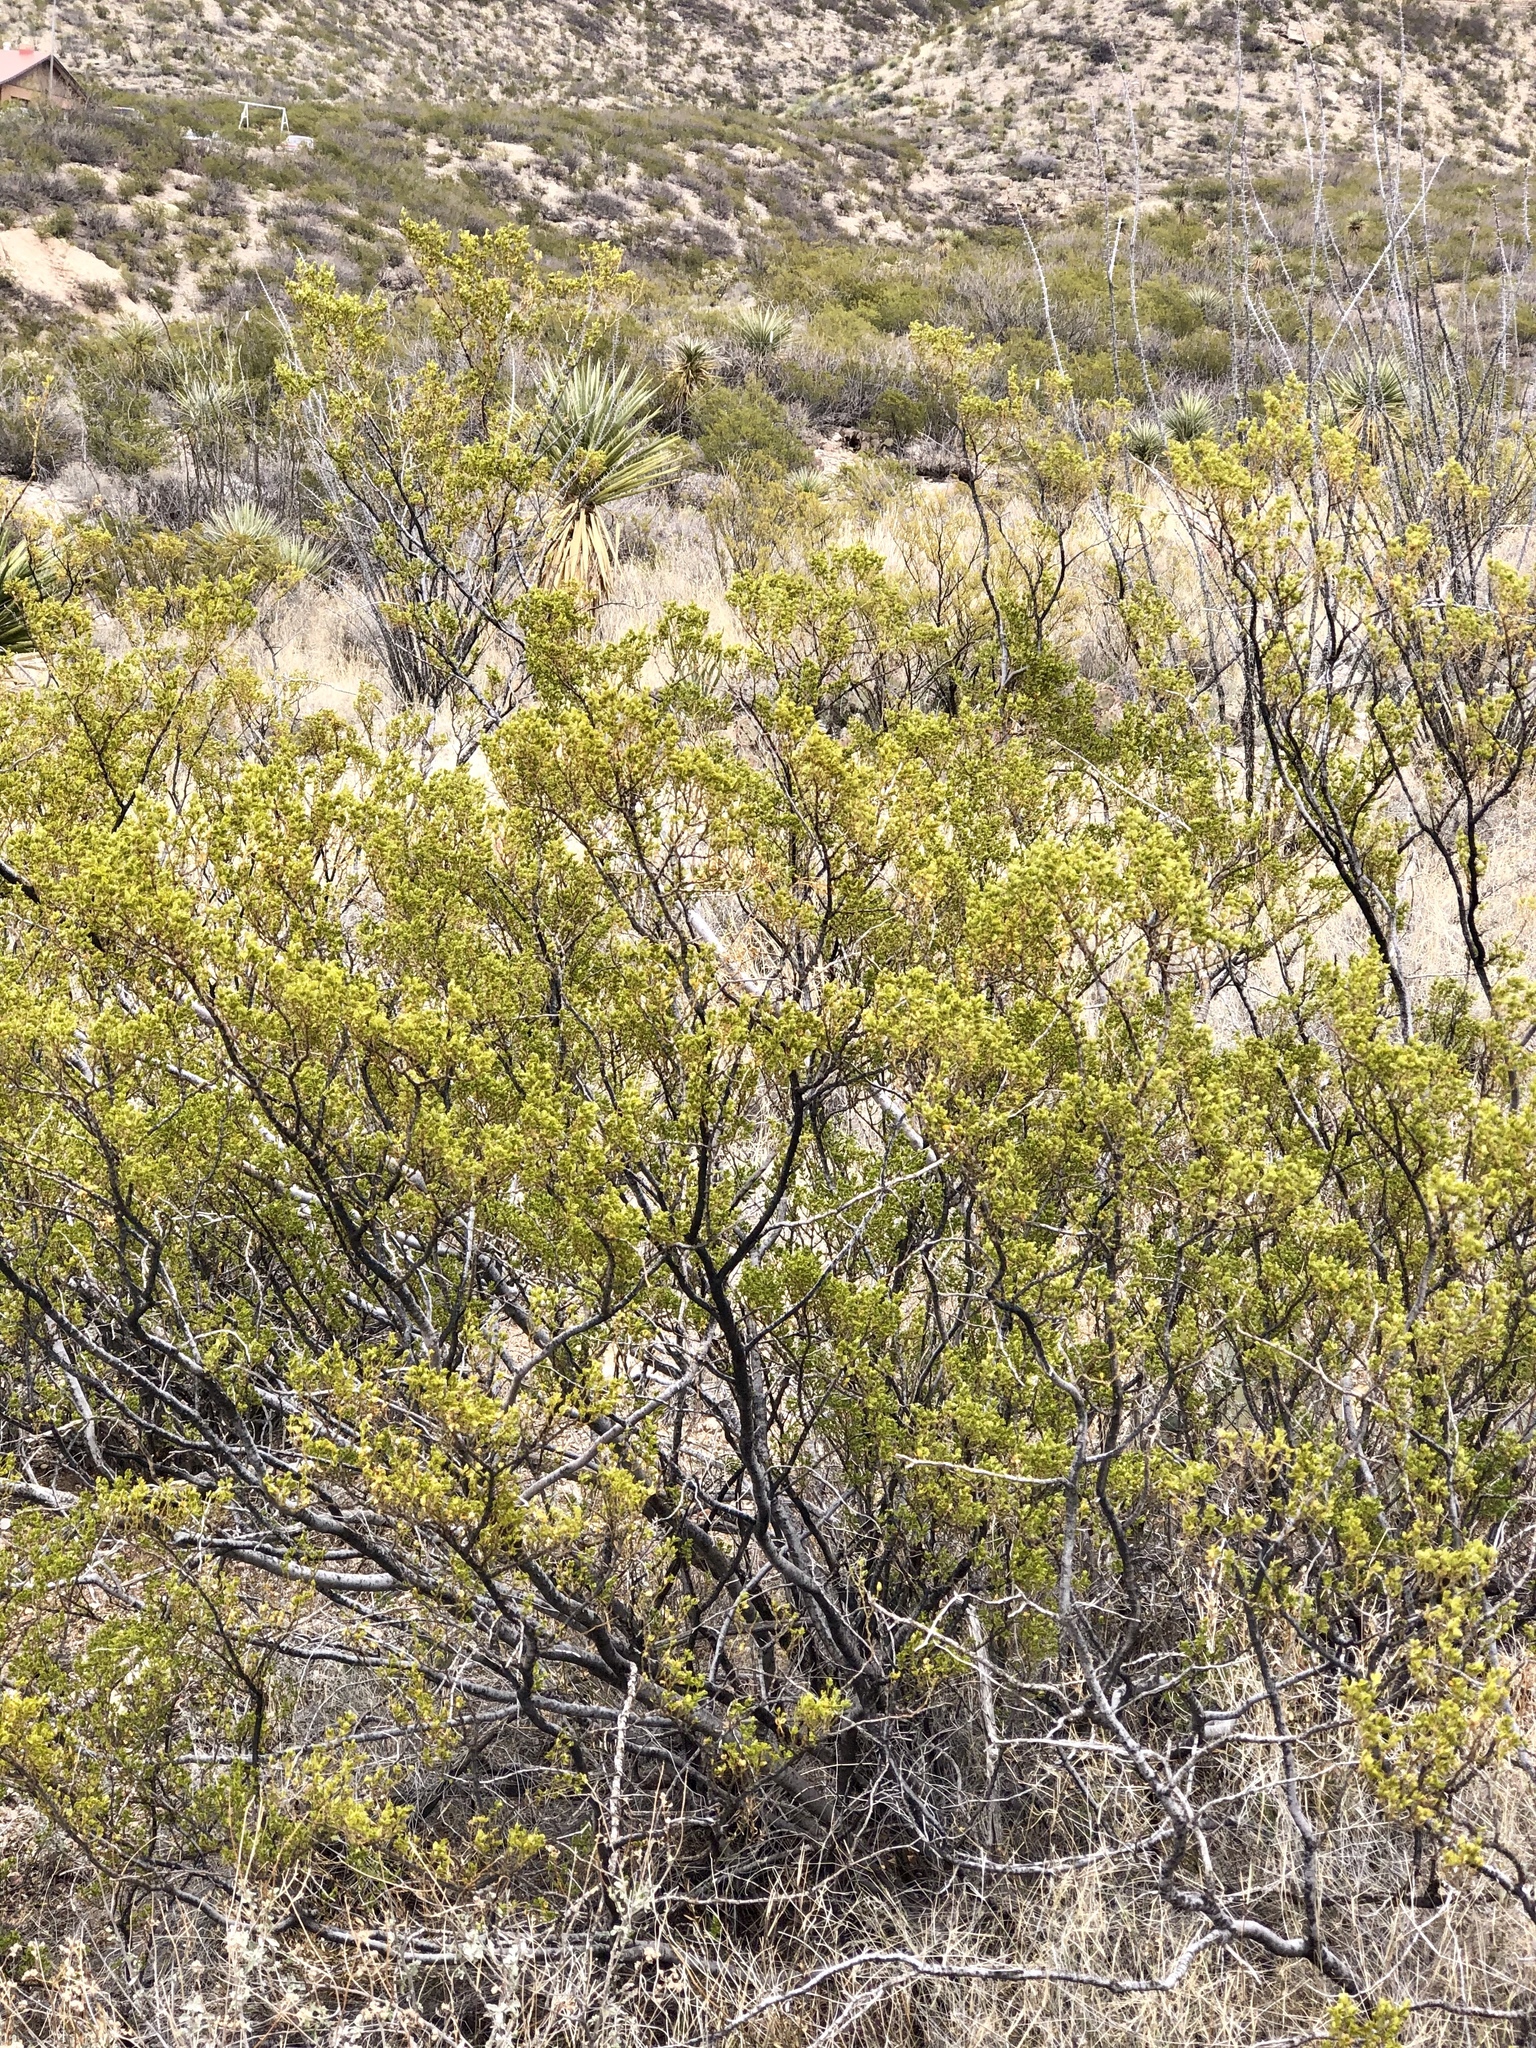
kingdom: Plantae
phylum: Tracheophyta
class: Magnoliopsida
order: Zygophyllales
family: Zygophyllaceae
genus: Larrea
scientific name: Larrea tridentata
